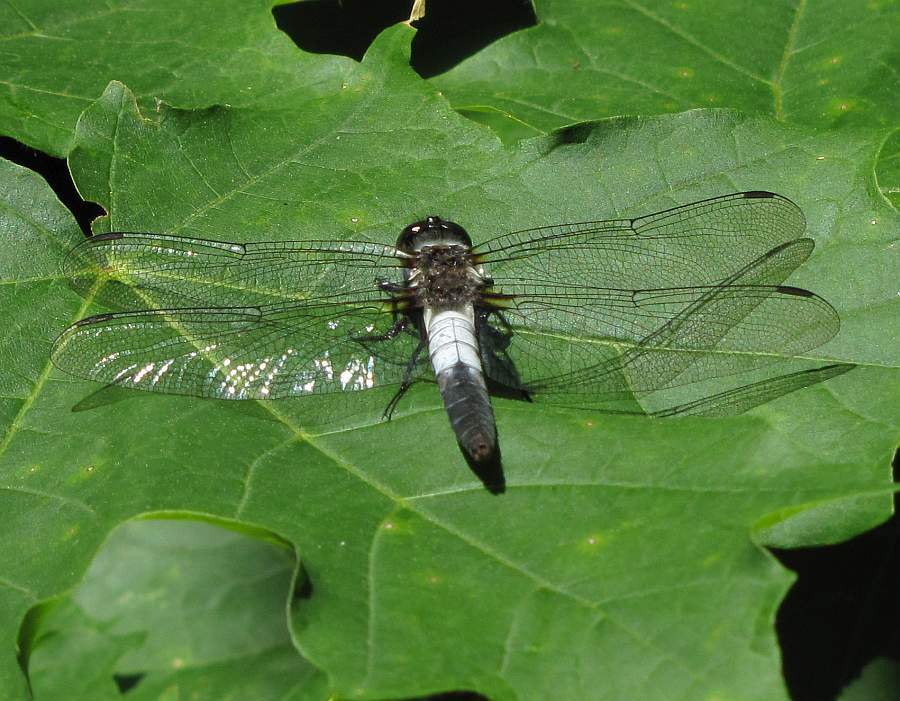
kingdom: Animalia
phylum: Arthropoda
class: Insecta
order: Odonata
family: Libellulidae
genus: Ladona
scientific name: Ladona julia
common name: Chalk-fronted corporal
